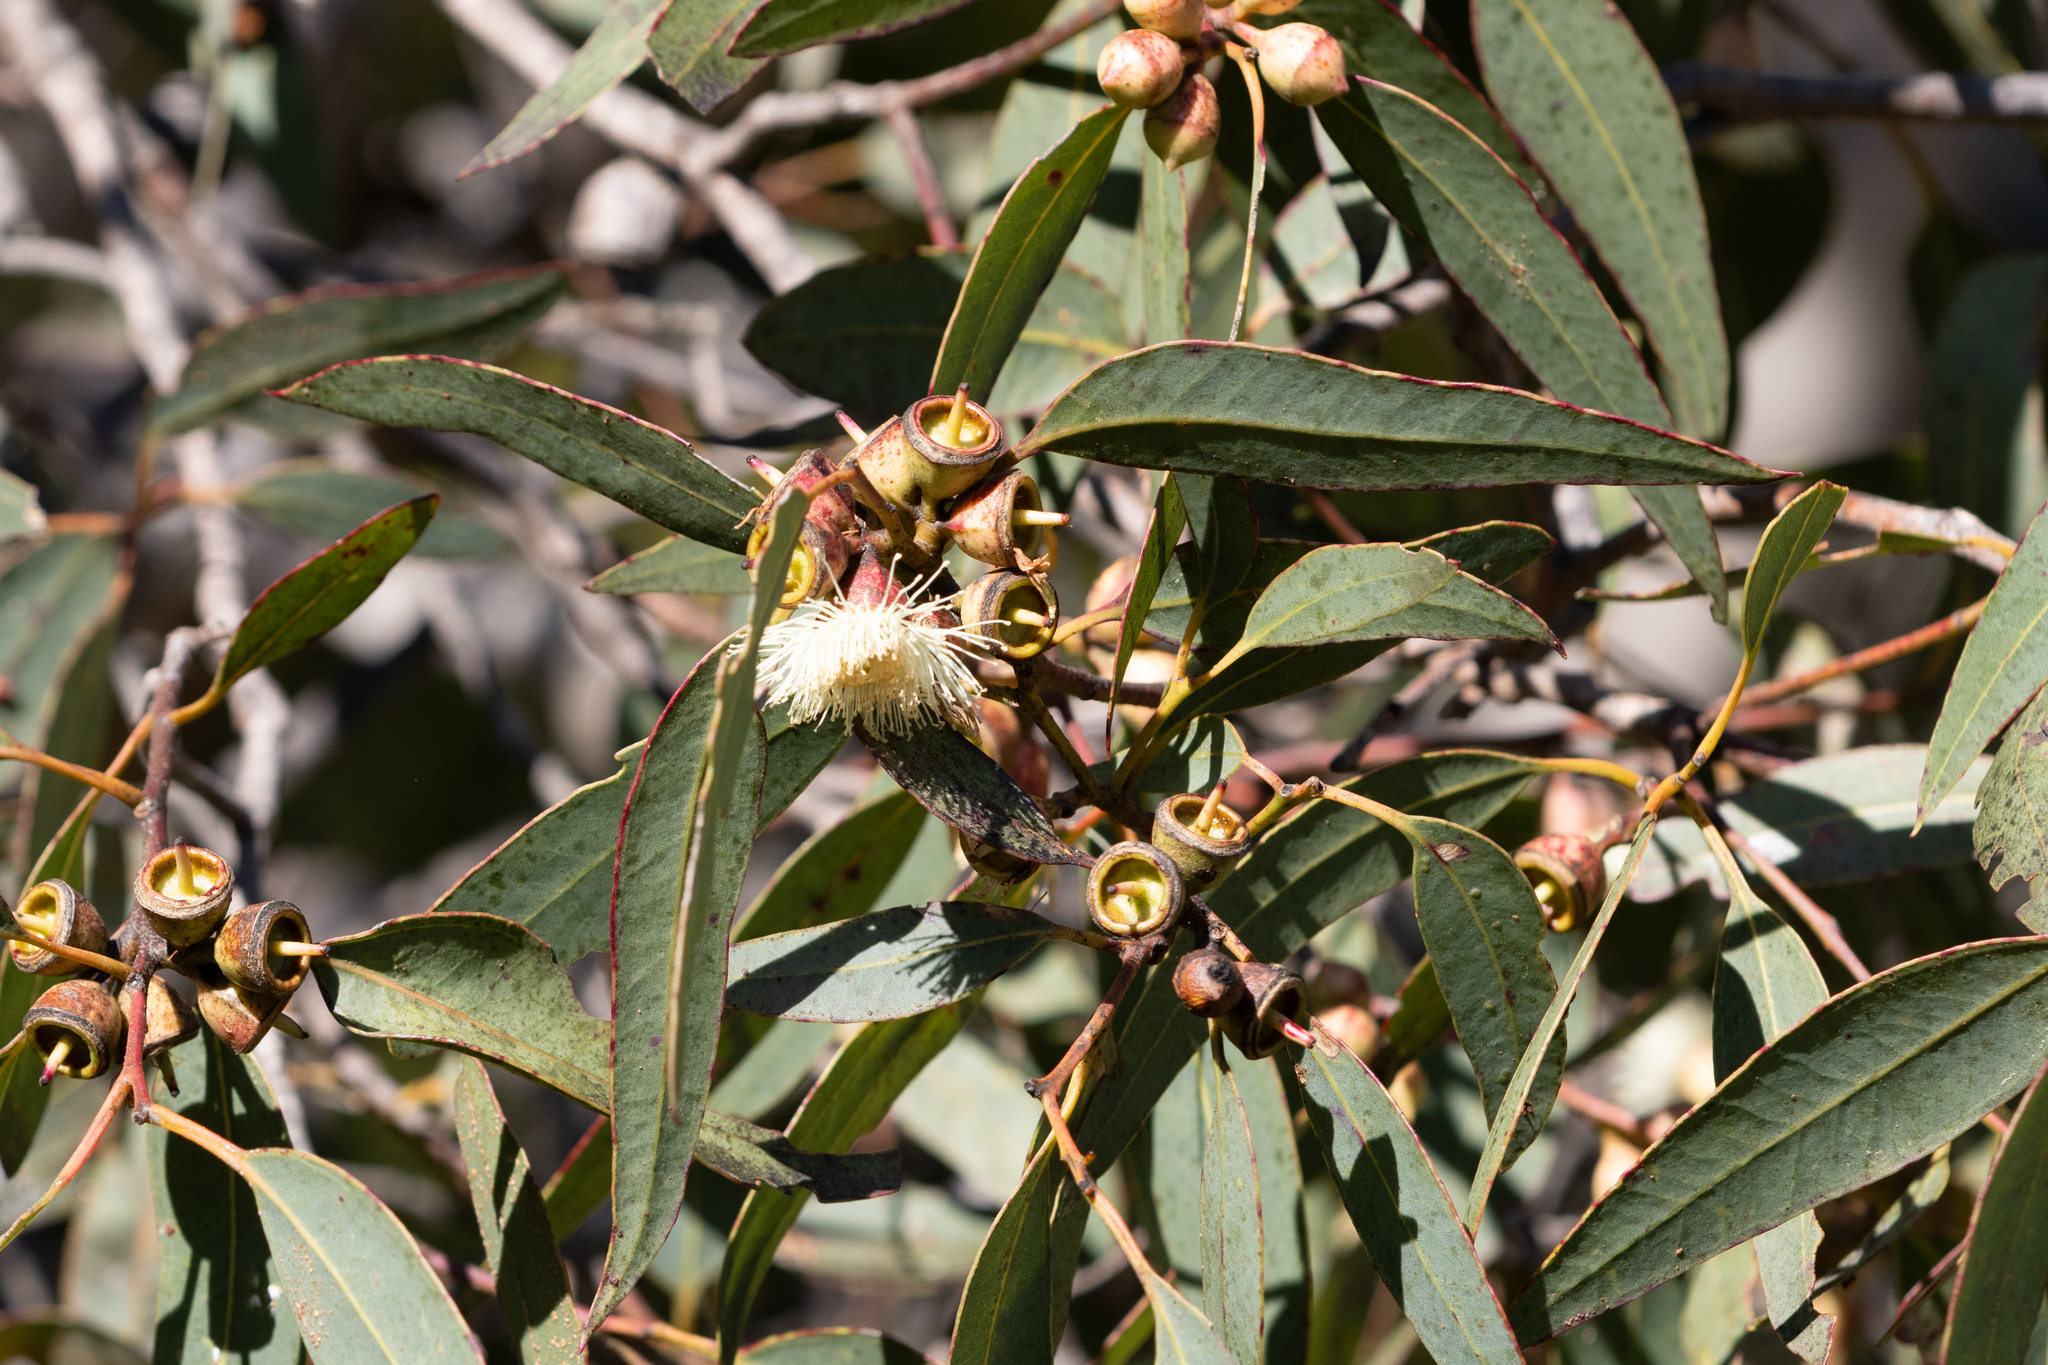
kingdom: Plantae
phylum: Tracheophyta
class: Magnoliopsida
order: Myrtales
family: Myrtaceae
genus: Eucalyptus
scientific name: Eucalyptus cosmophylla
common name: Bog-gum
